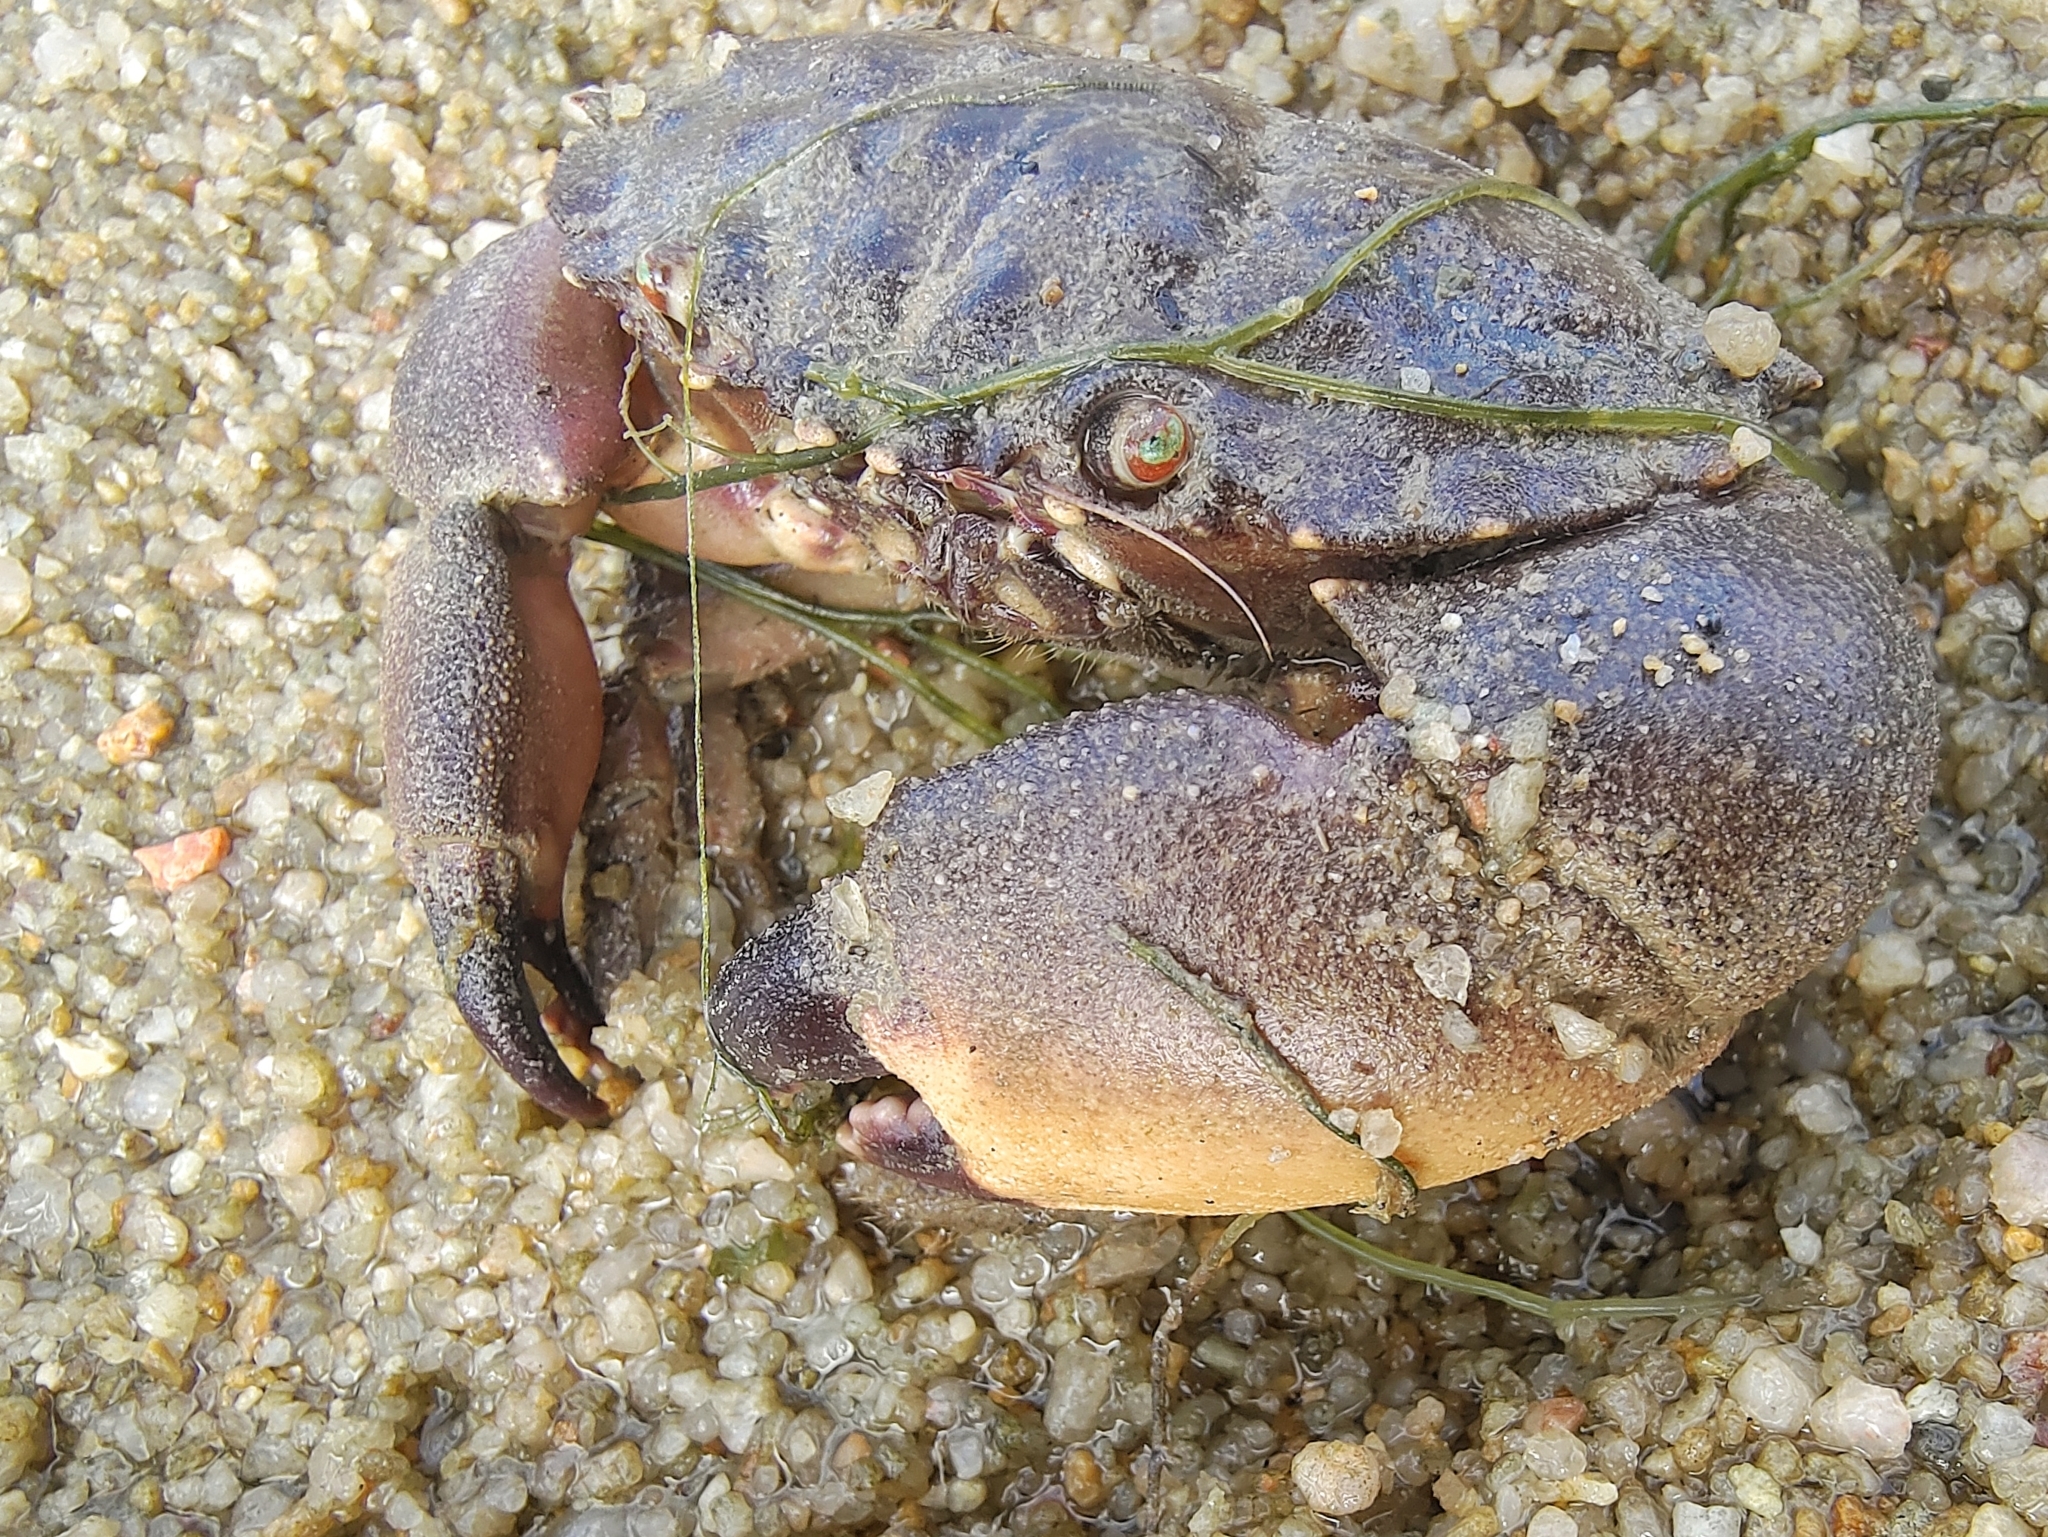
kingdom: Animalia
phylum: Arthropoda
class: Malacostraca
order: Decapoda
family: Menippidae
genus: Myomenippe
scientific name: Myomenippe hardwickii
